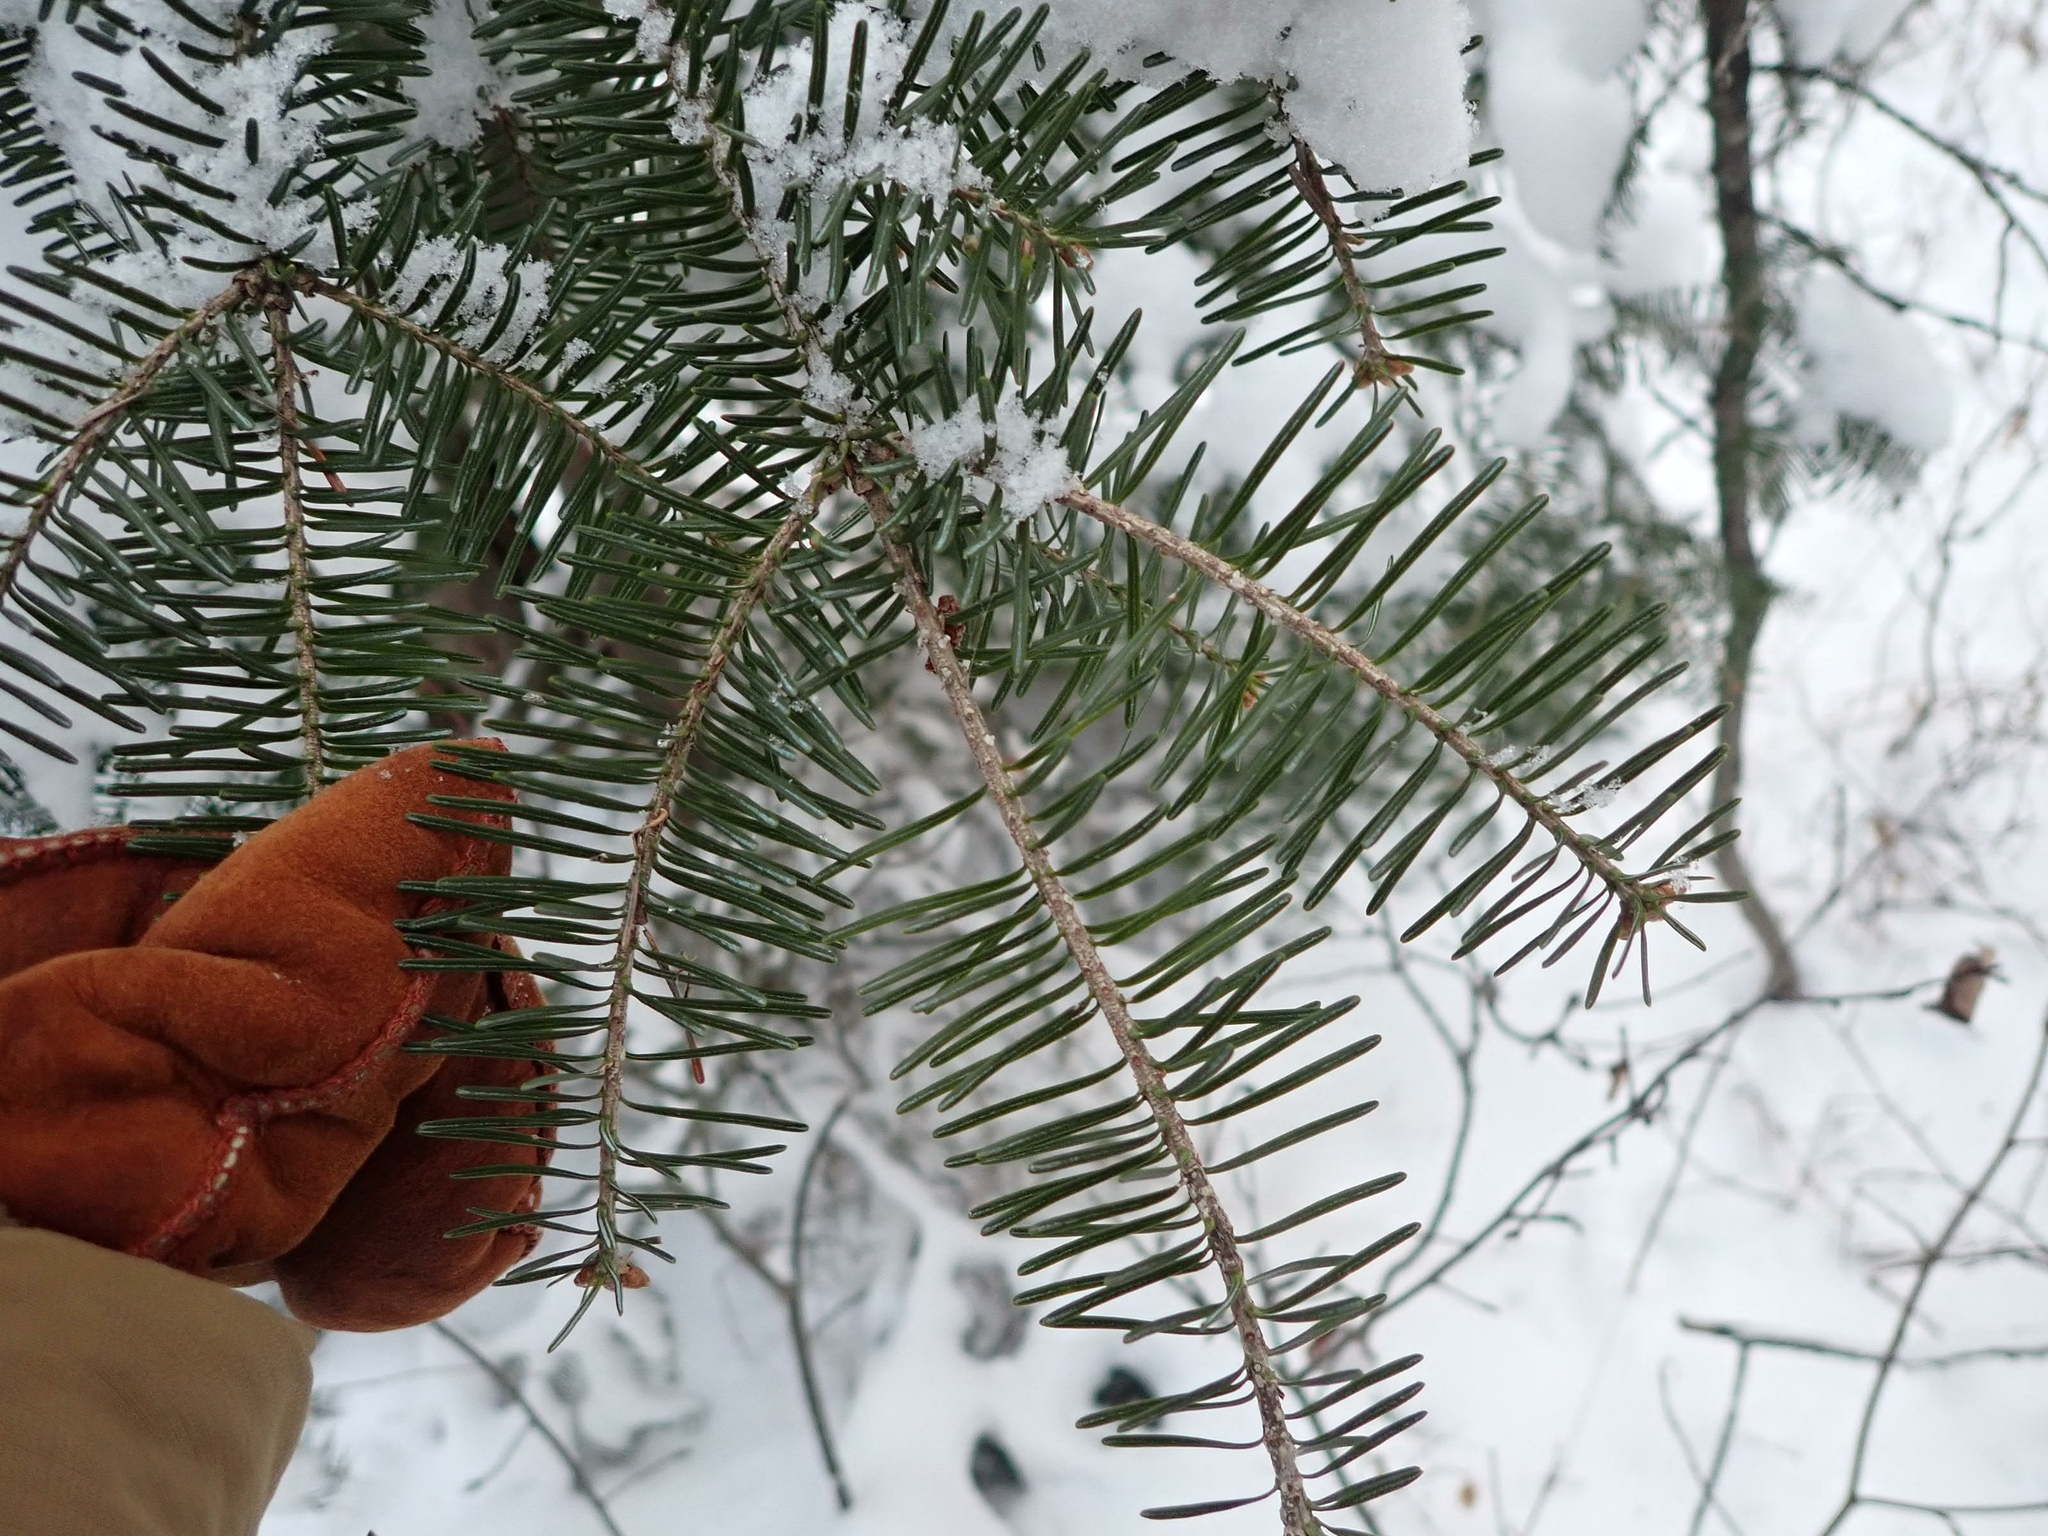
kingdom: Plantae
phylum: Tracheophyta
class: Pinopsida
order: Pinales
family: Pinaceae
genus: Abies
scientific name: Abies balsamea
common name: Balsam fir
